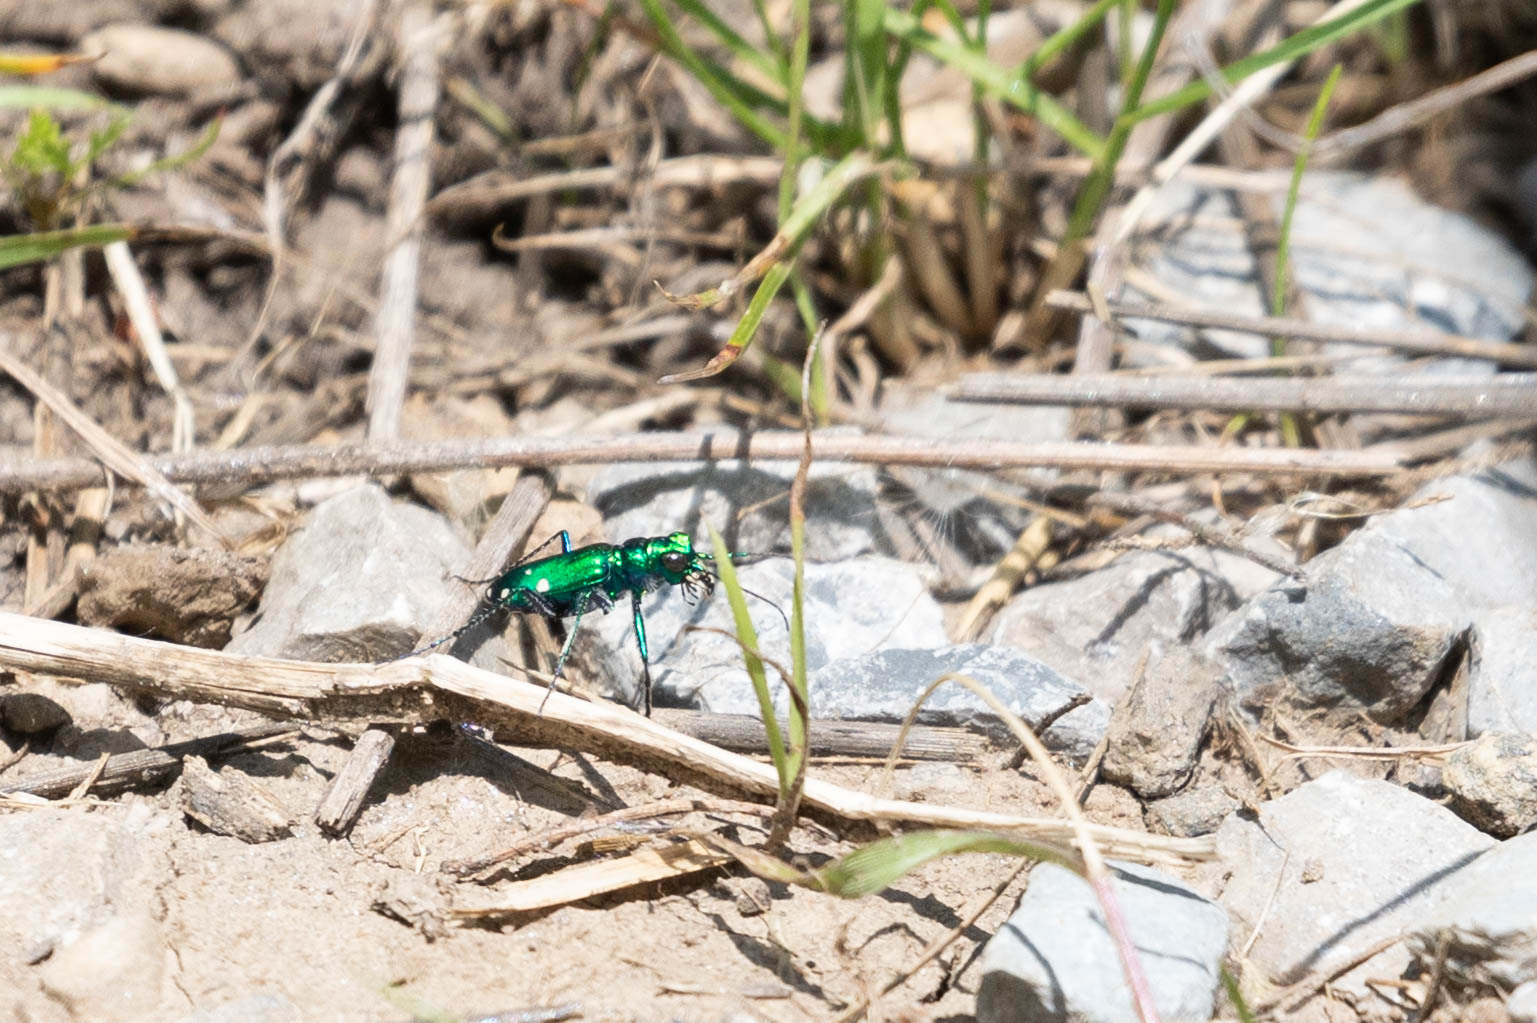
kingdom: Animalia
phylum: Arthropoda
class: Insecta
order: Coleoptera
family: Carabidae
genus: Cicindela
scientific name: Cicindela sexguttata
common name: Six-spotted tiger beetle
